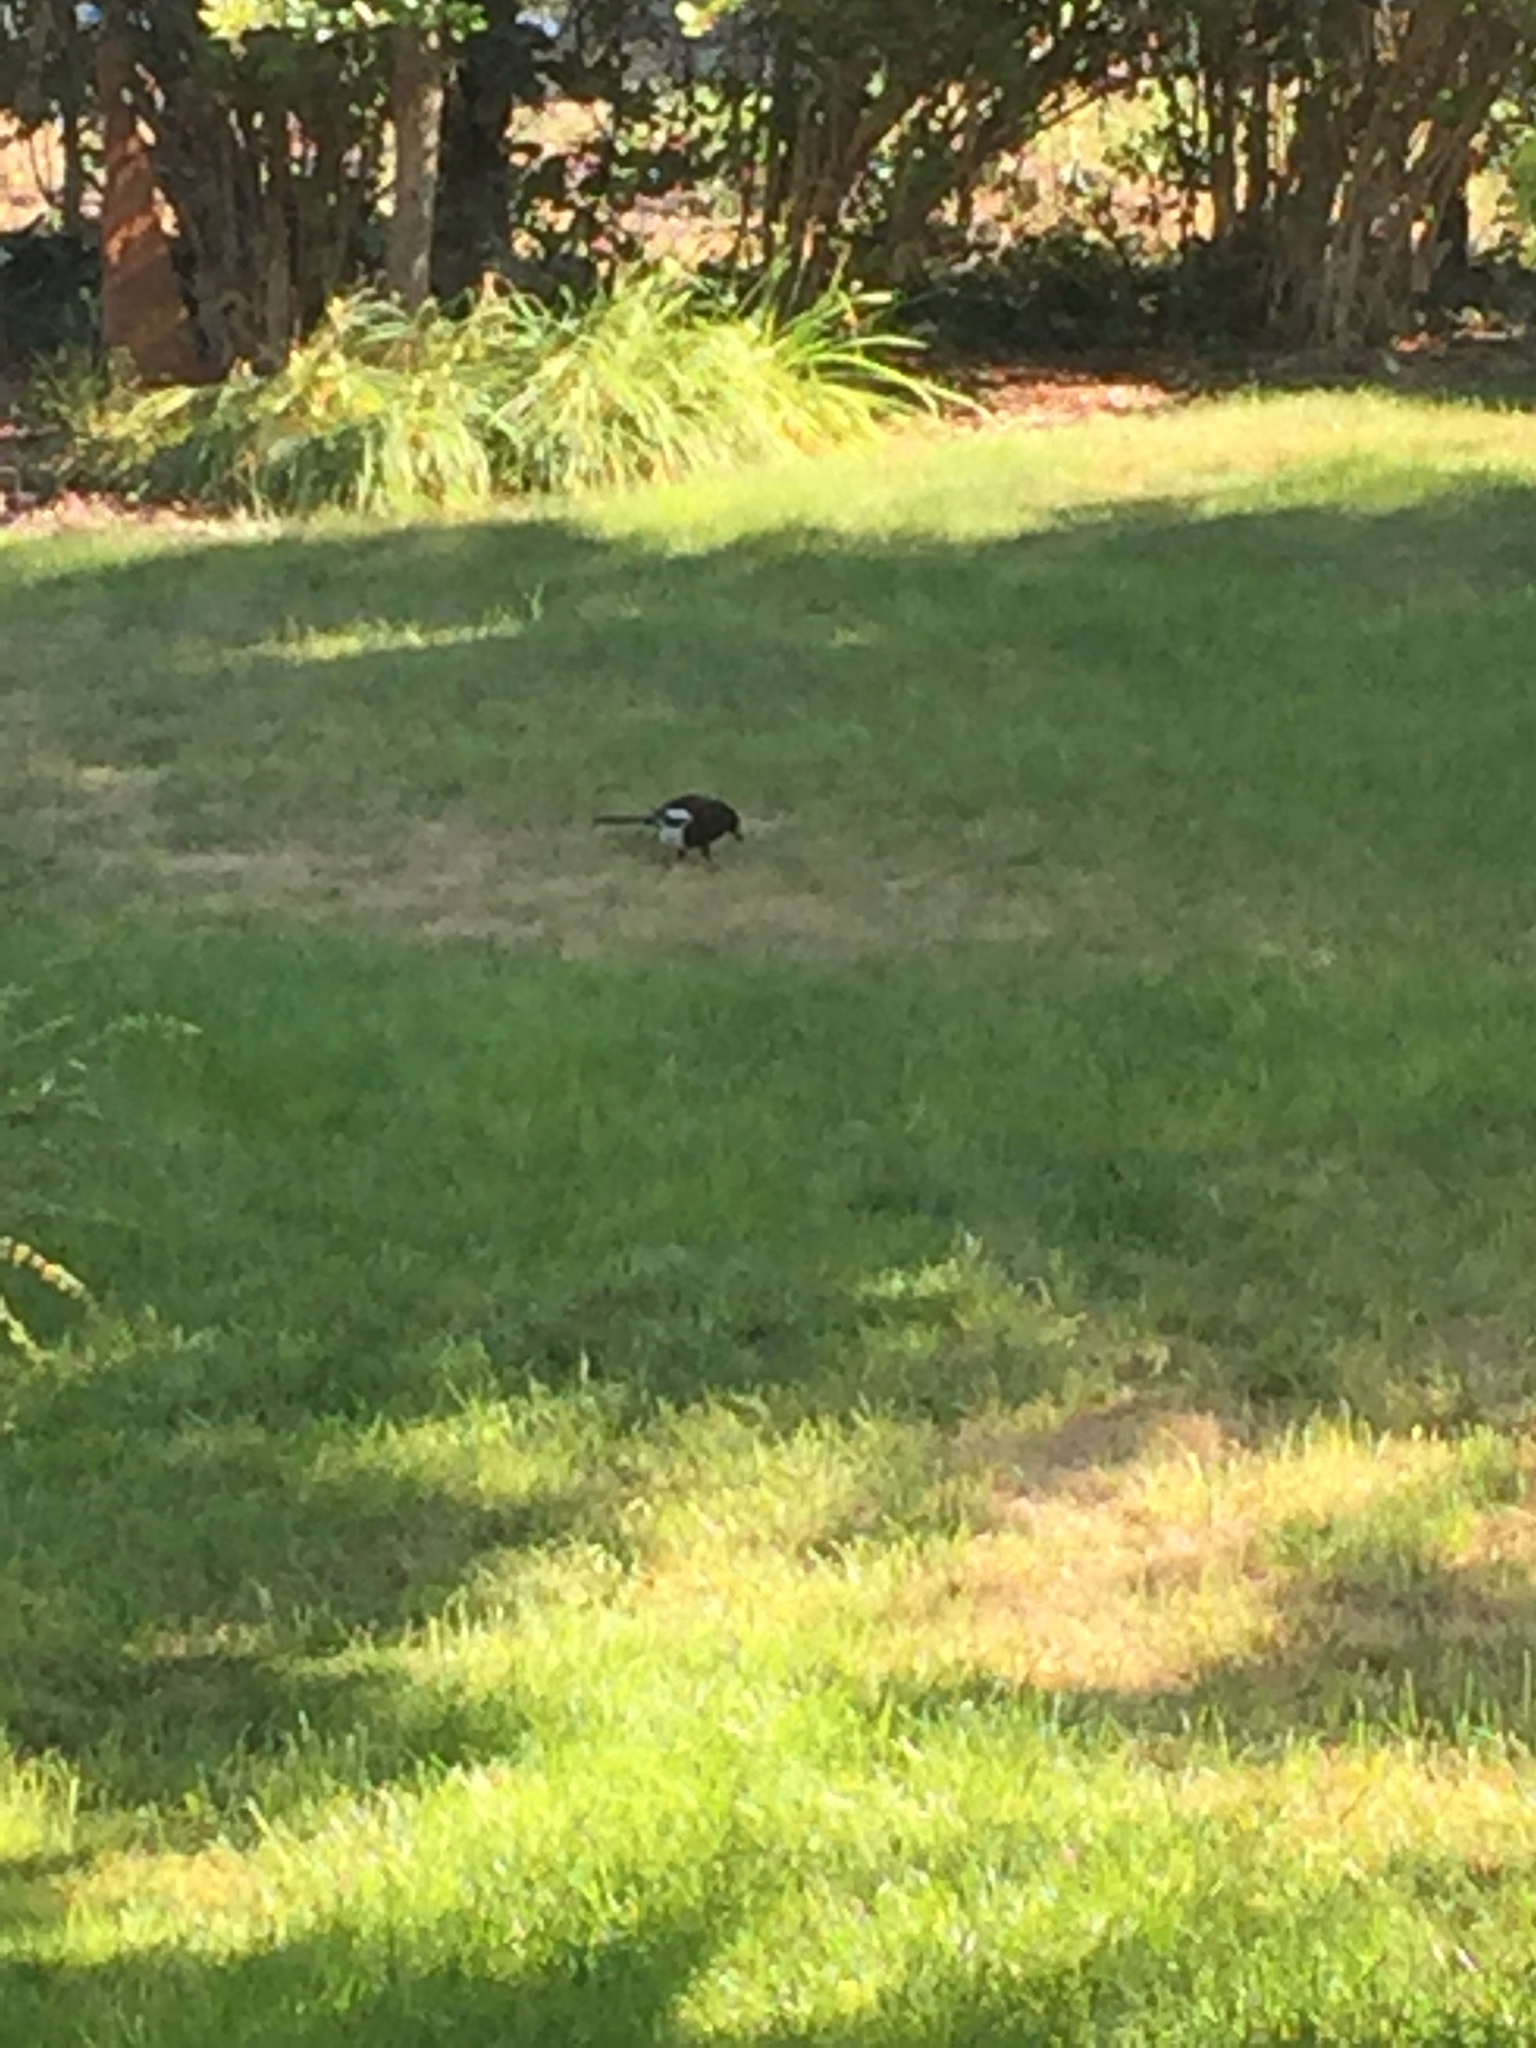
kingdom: Animalia
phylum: Chordata
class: Aves
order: Passeriformes
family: Corvidae
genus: Pica
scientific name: Pica hudsonia
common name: Black-billed magpie
